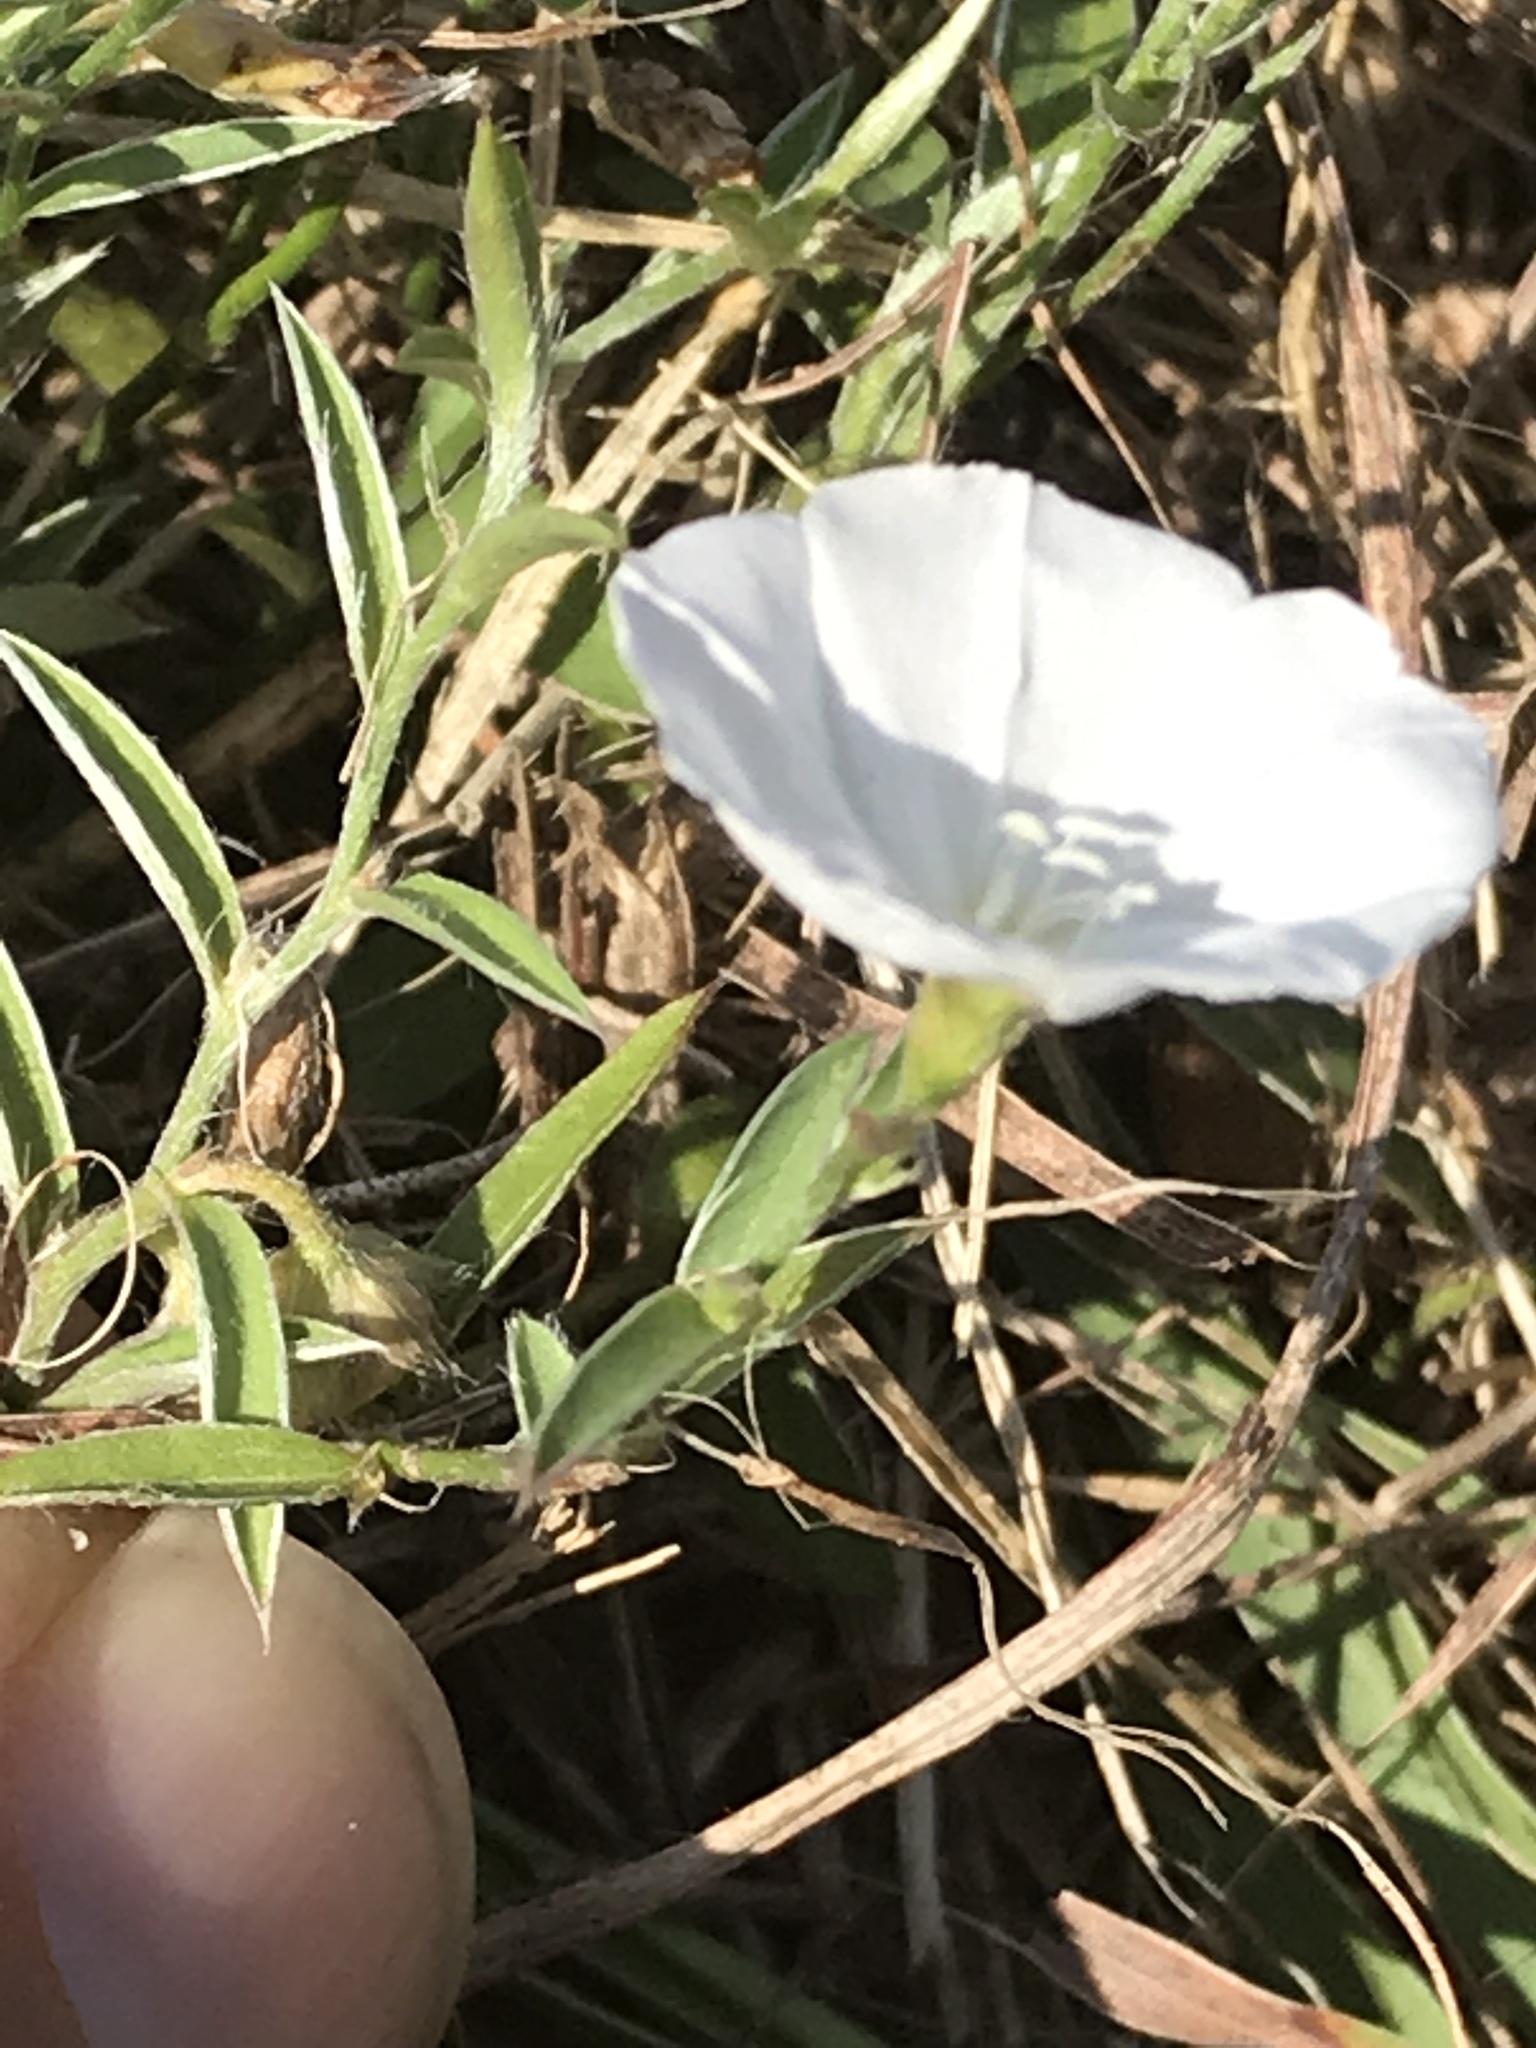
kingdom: Plantae
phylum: Tracheophyta
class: Magnoliopsida
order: Solanales
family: Convolvulaceae
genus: Evolvulus
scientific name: Evolvulus sericeus
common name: Blue dots
